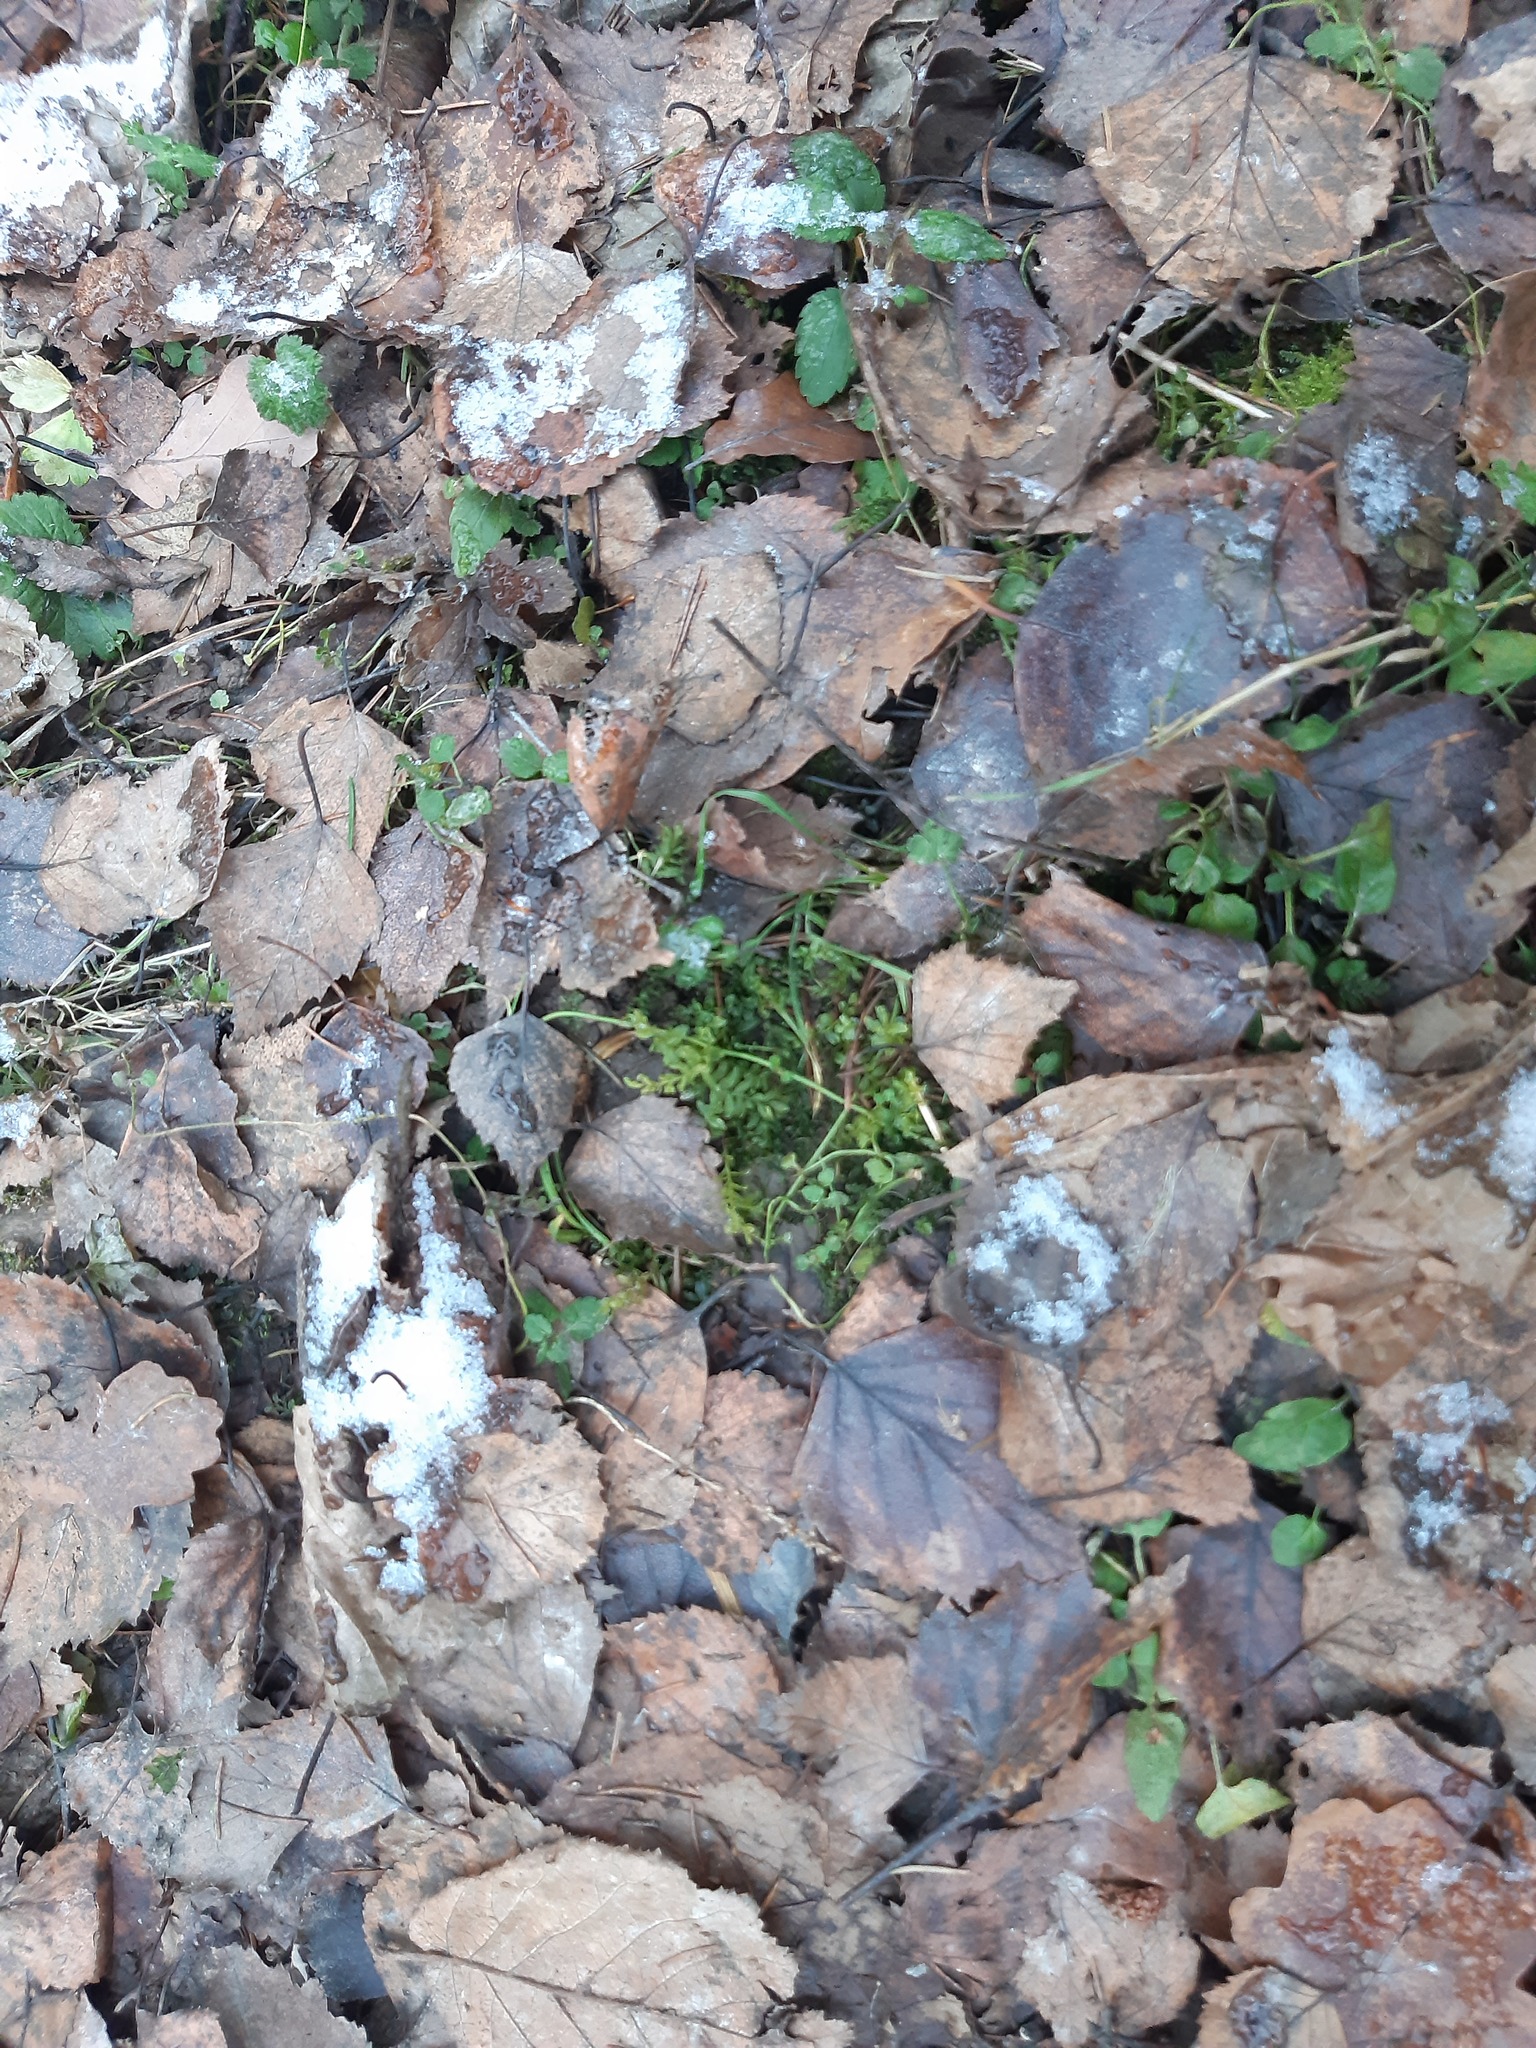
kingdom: Plantae
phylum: Bryophyta
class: Bryopsida
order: Bryales
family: Mniaceae
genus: Plagiomnium
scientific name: Plagiomnium undulatum
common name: Hart's-tongue thyme-moss
